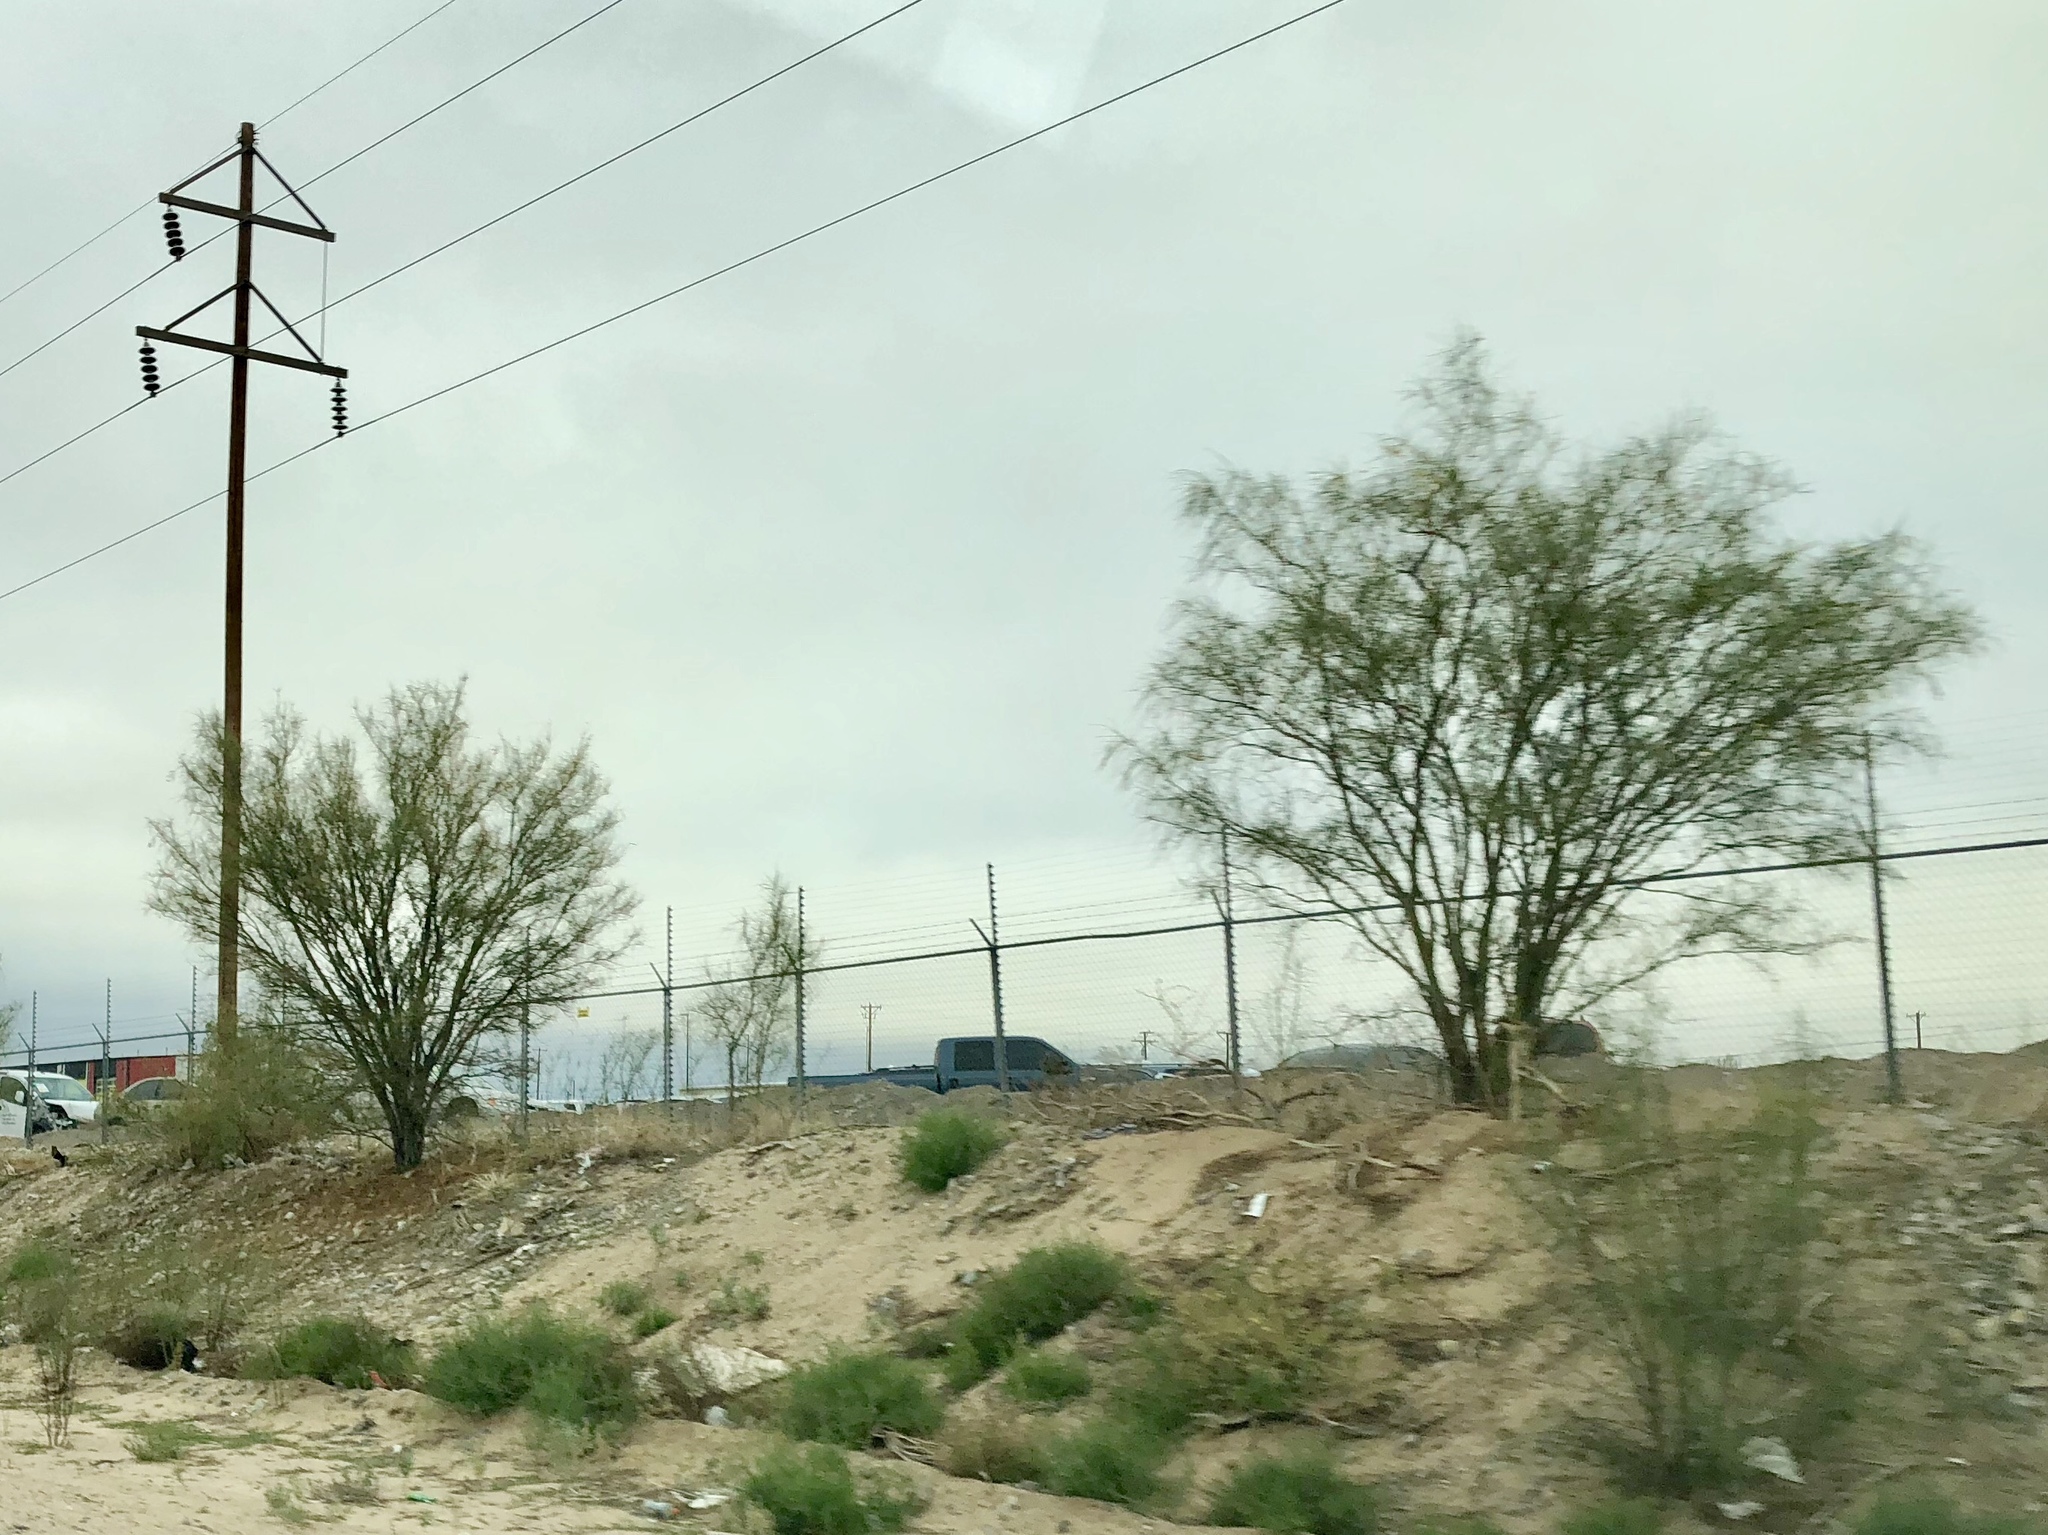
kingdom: Plantae
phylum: Tracheophyta
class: Magnoliopsida
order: Fabales
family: Fabaceae
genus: Parkinsonia
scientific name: Parkinsonia aculeata
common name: Jerusalem thorn
